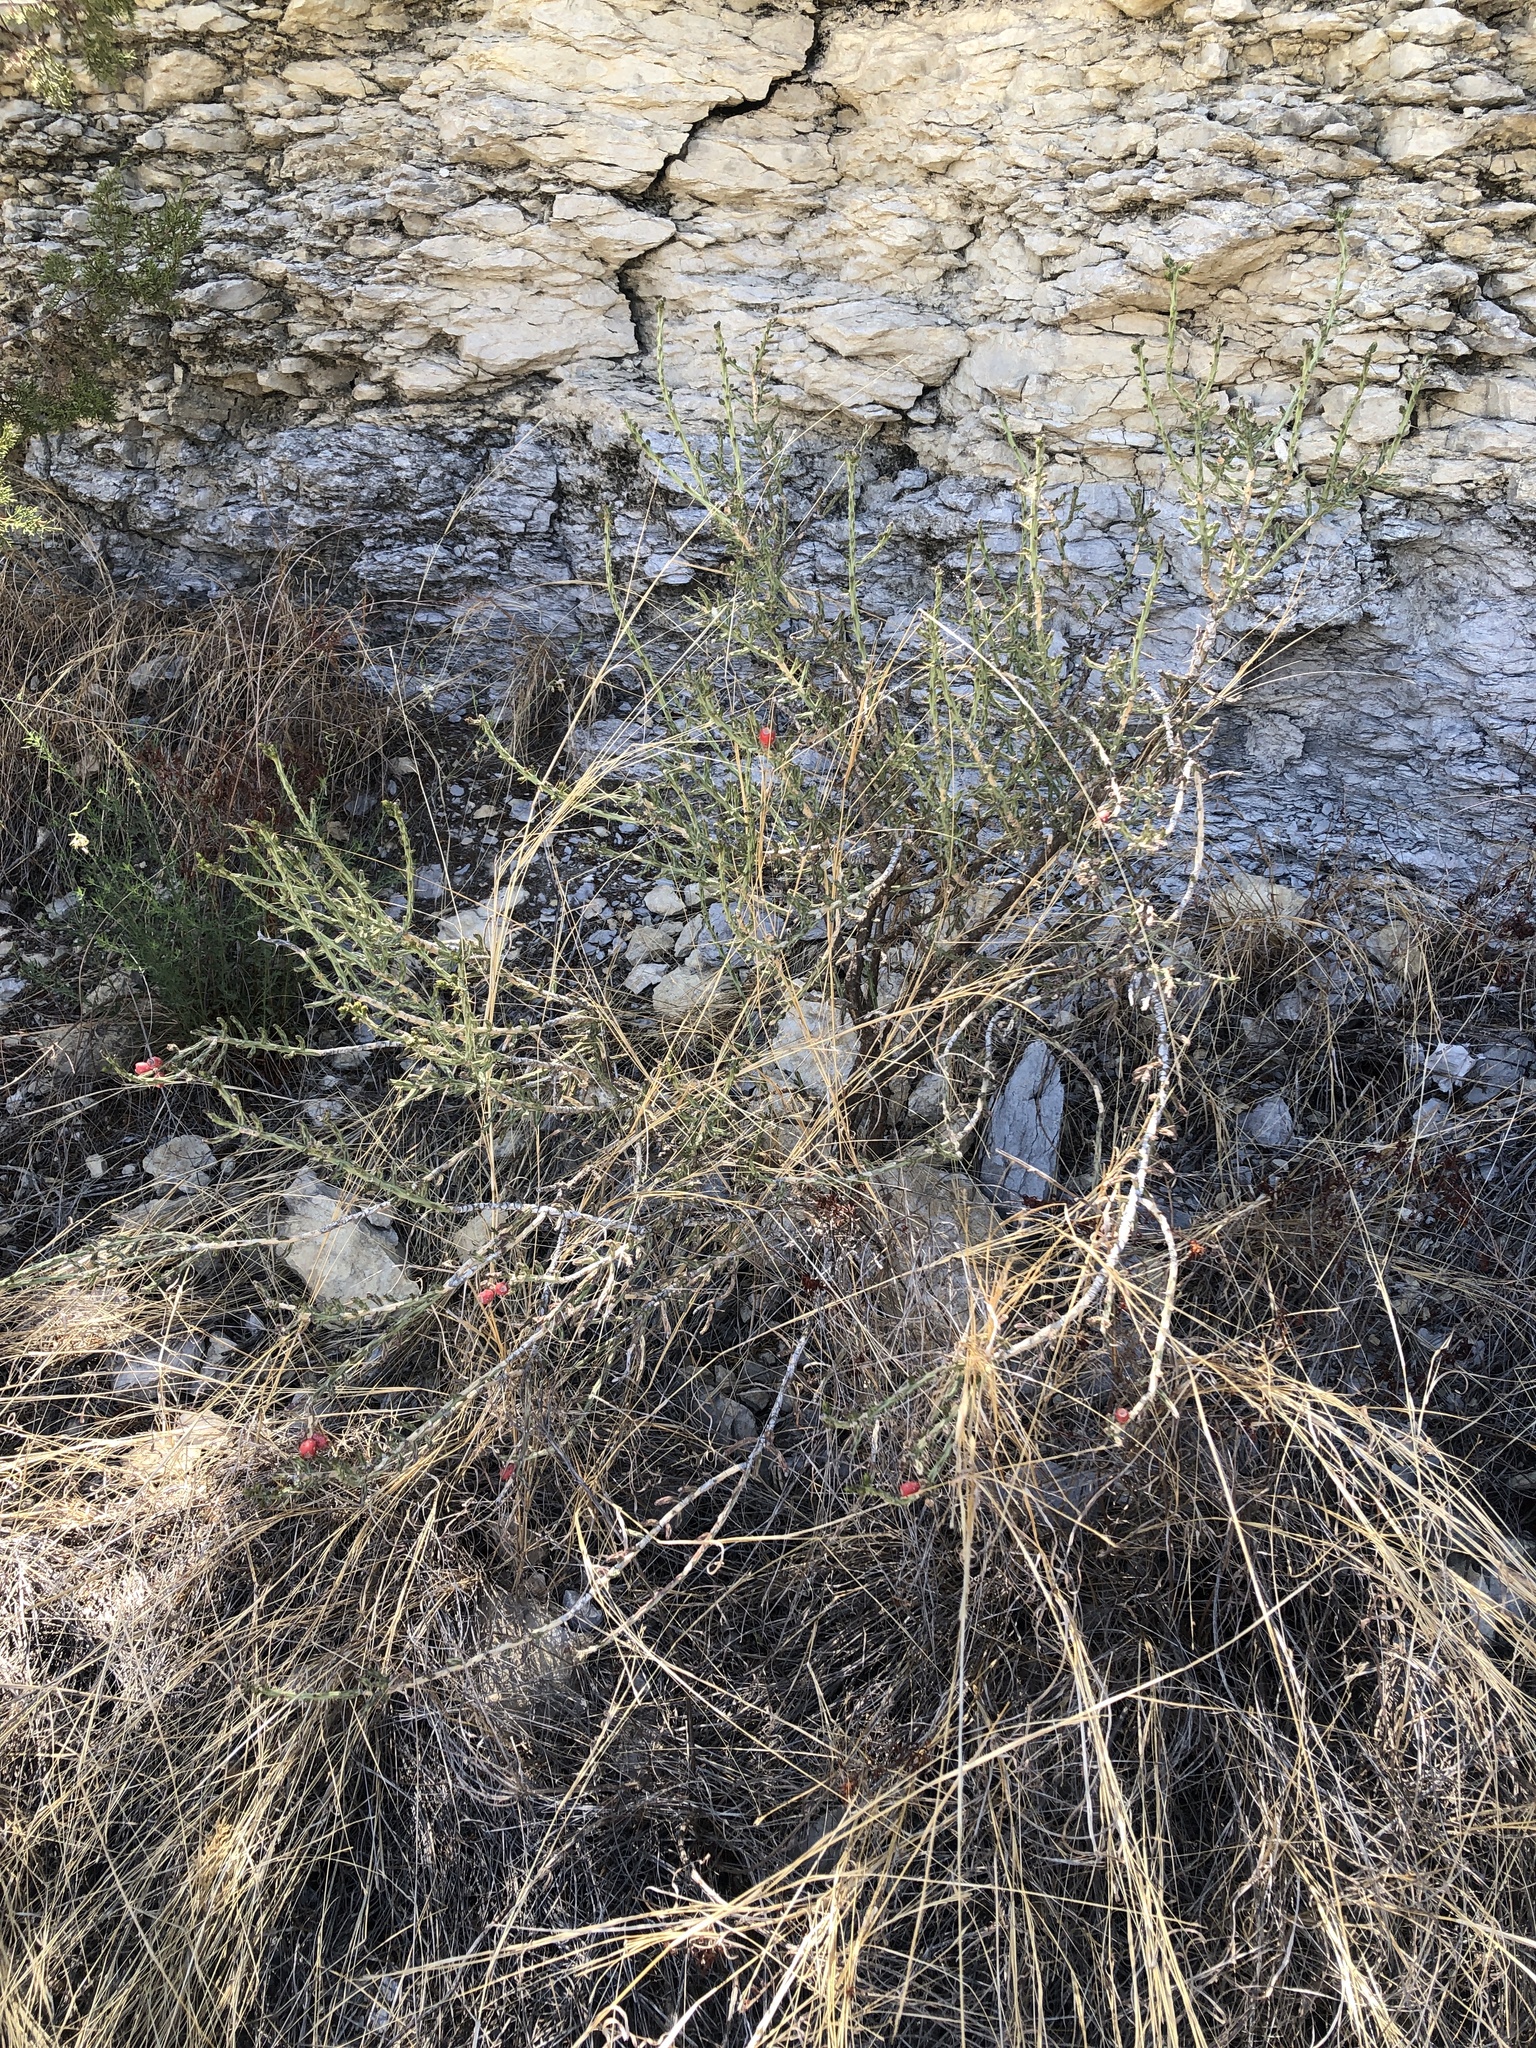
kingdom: Plantae
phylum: Tracheophyta
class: Magnoliopsida
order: Caryophyllales
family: Cactaceae
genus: Cylindropuntia
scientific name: Cylindropuntia leptocaulis
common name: Christmas cactus
